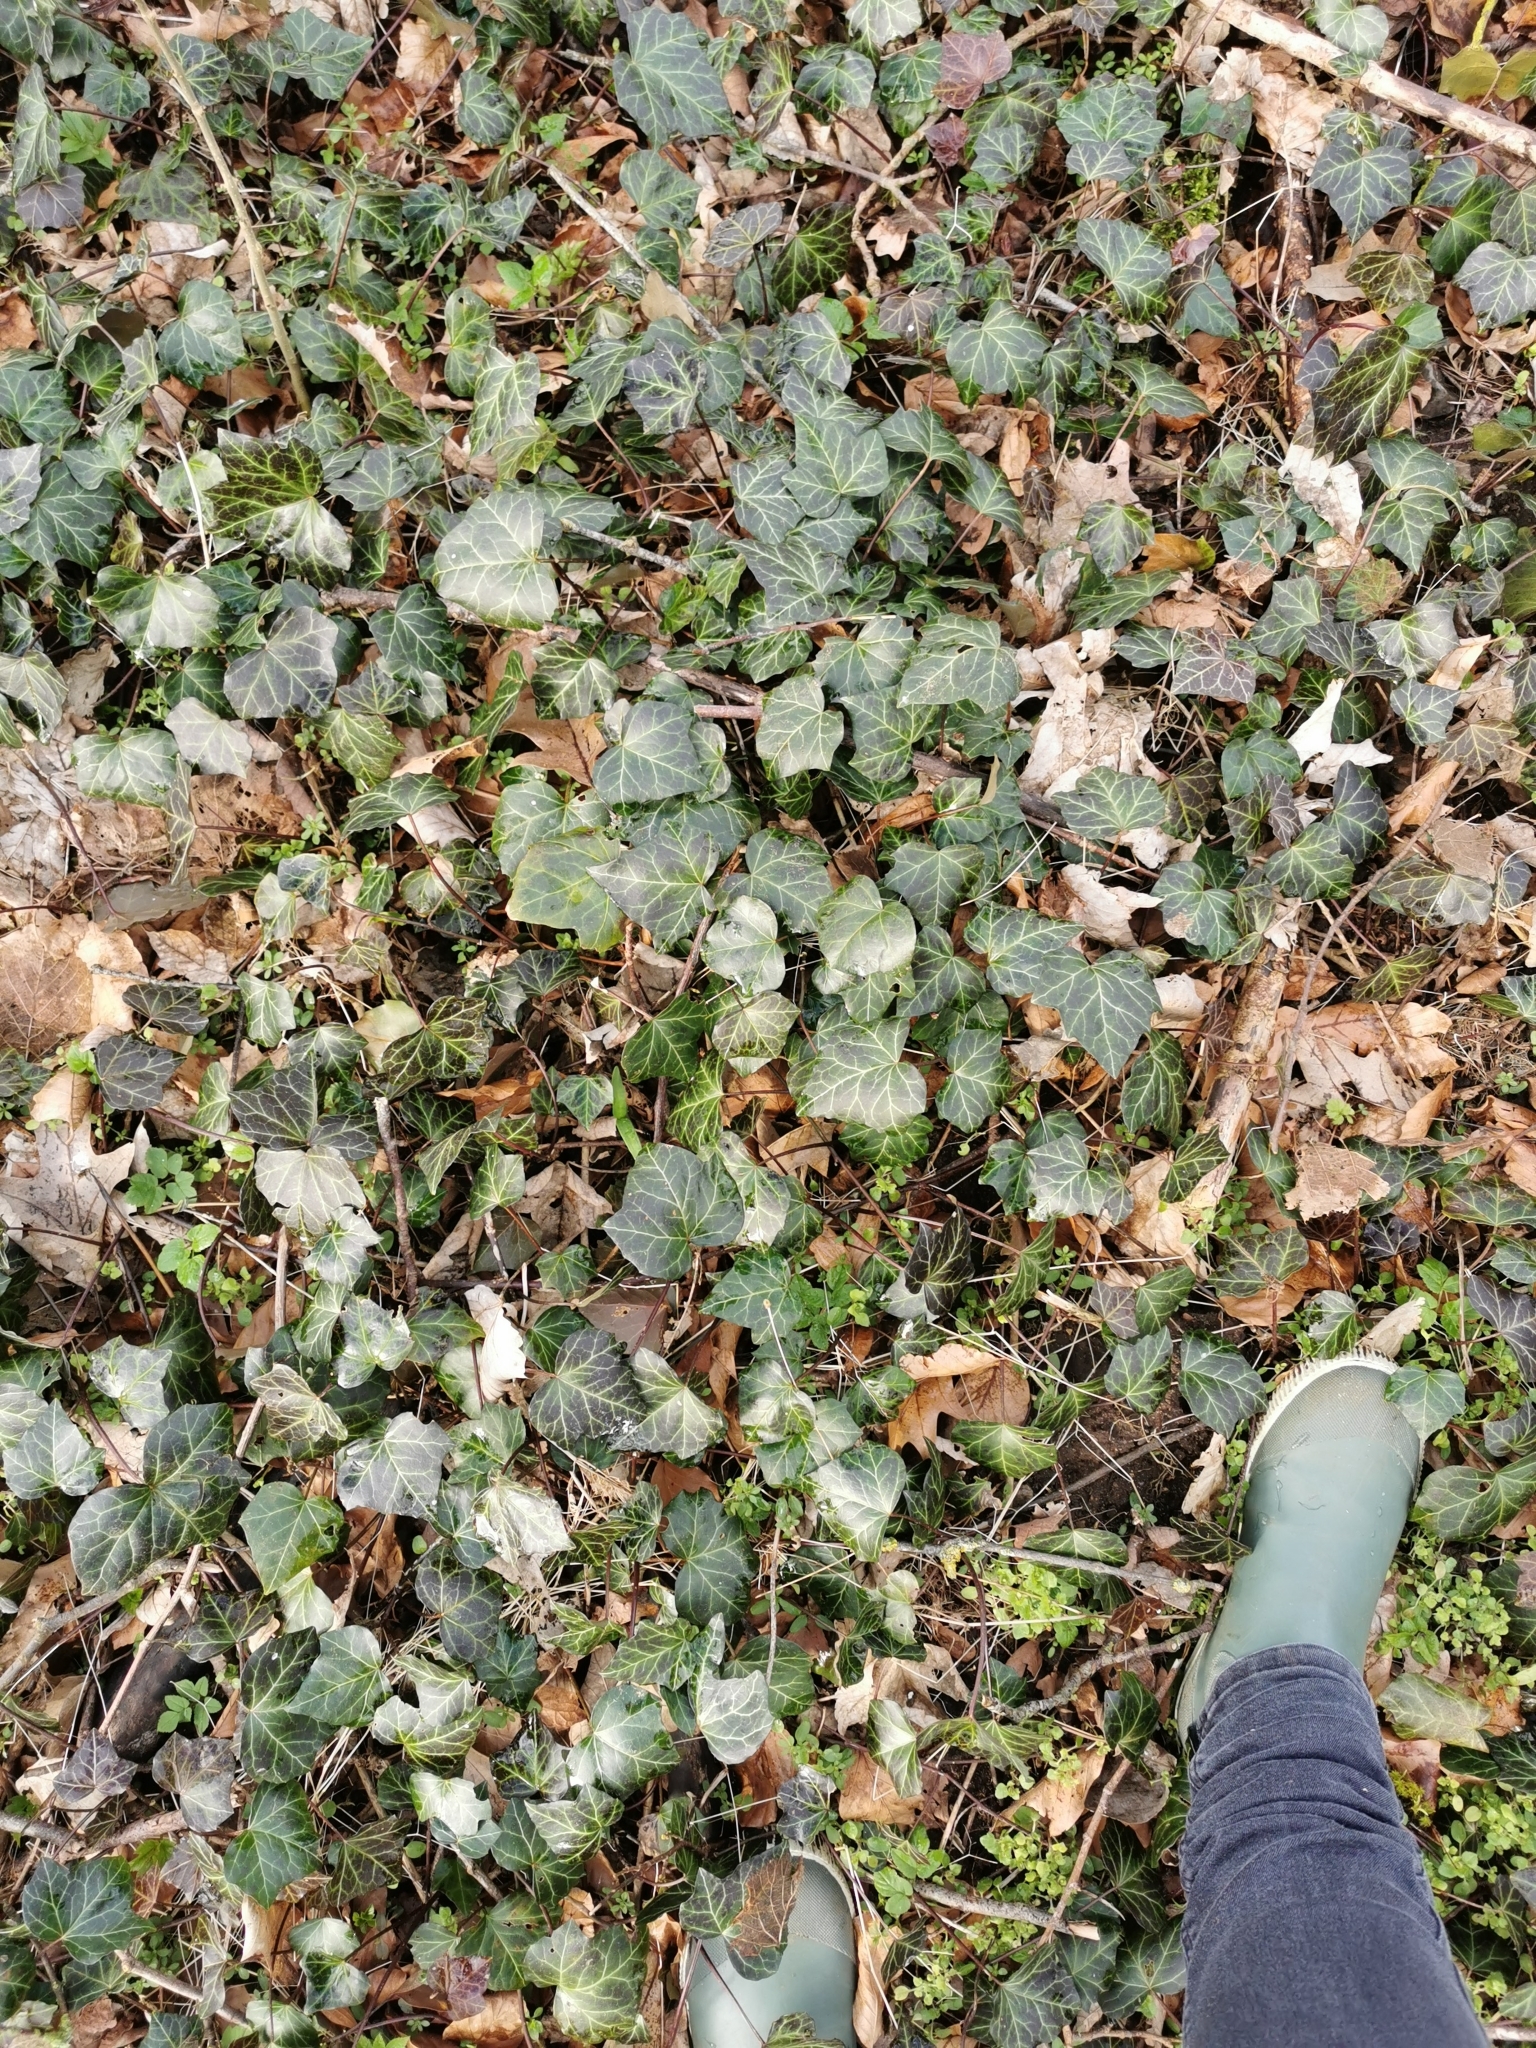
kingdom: Plantae
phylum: Tracheophyta
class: Magnoliopsida
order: Apiales
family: Araliaceae
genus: Hedera
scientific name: Hedera helix
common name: Ivy
